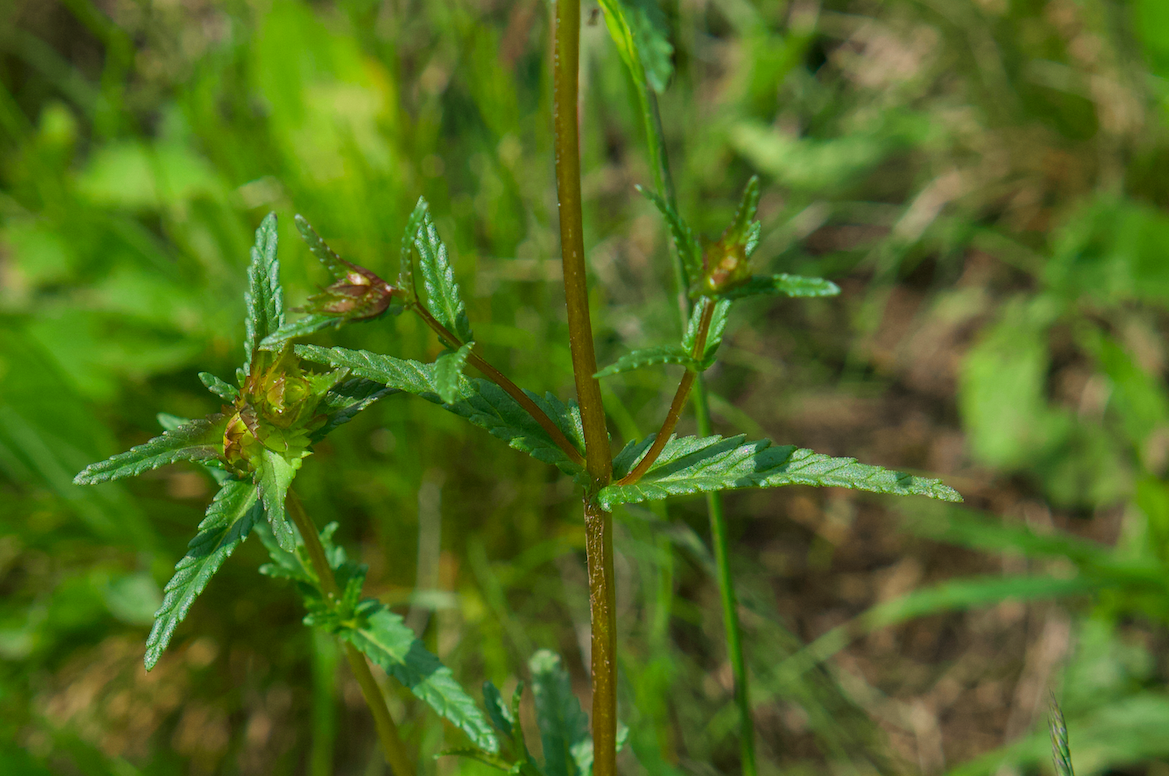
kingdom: Plantae
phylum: Tracheophyta
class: Magnoliopsida
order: Lamiales
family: Orobanchaceae
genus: Rhinanthus
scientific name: Rhinanthus minor
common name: Yellow-rattle
